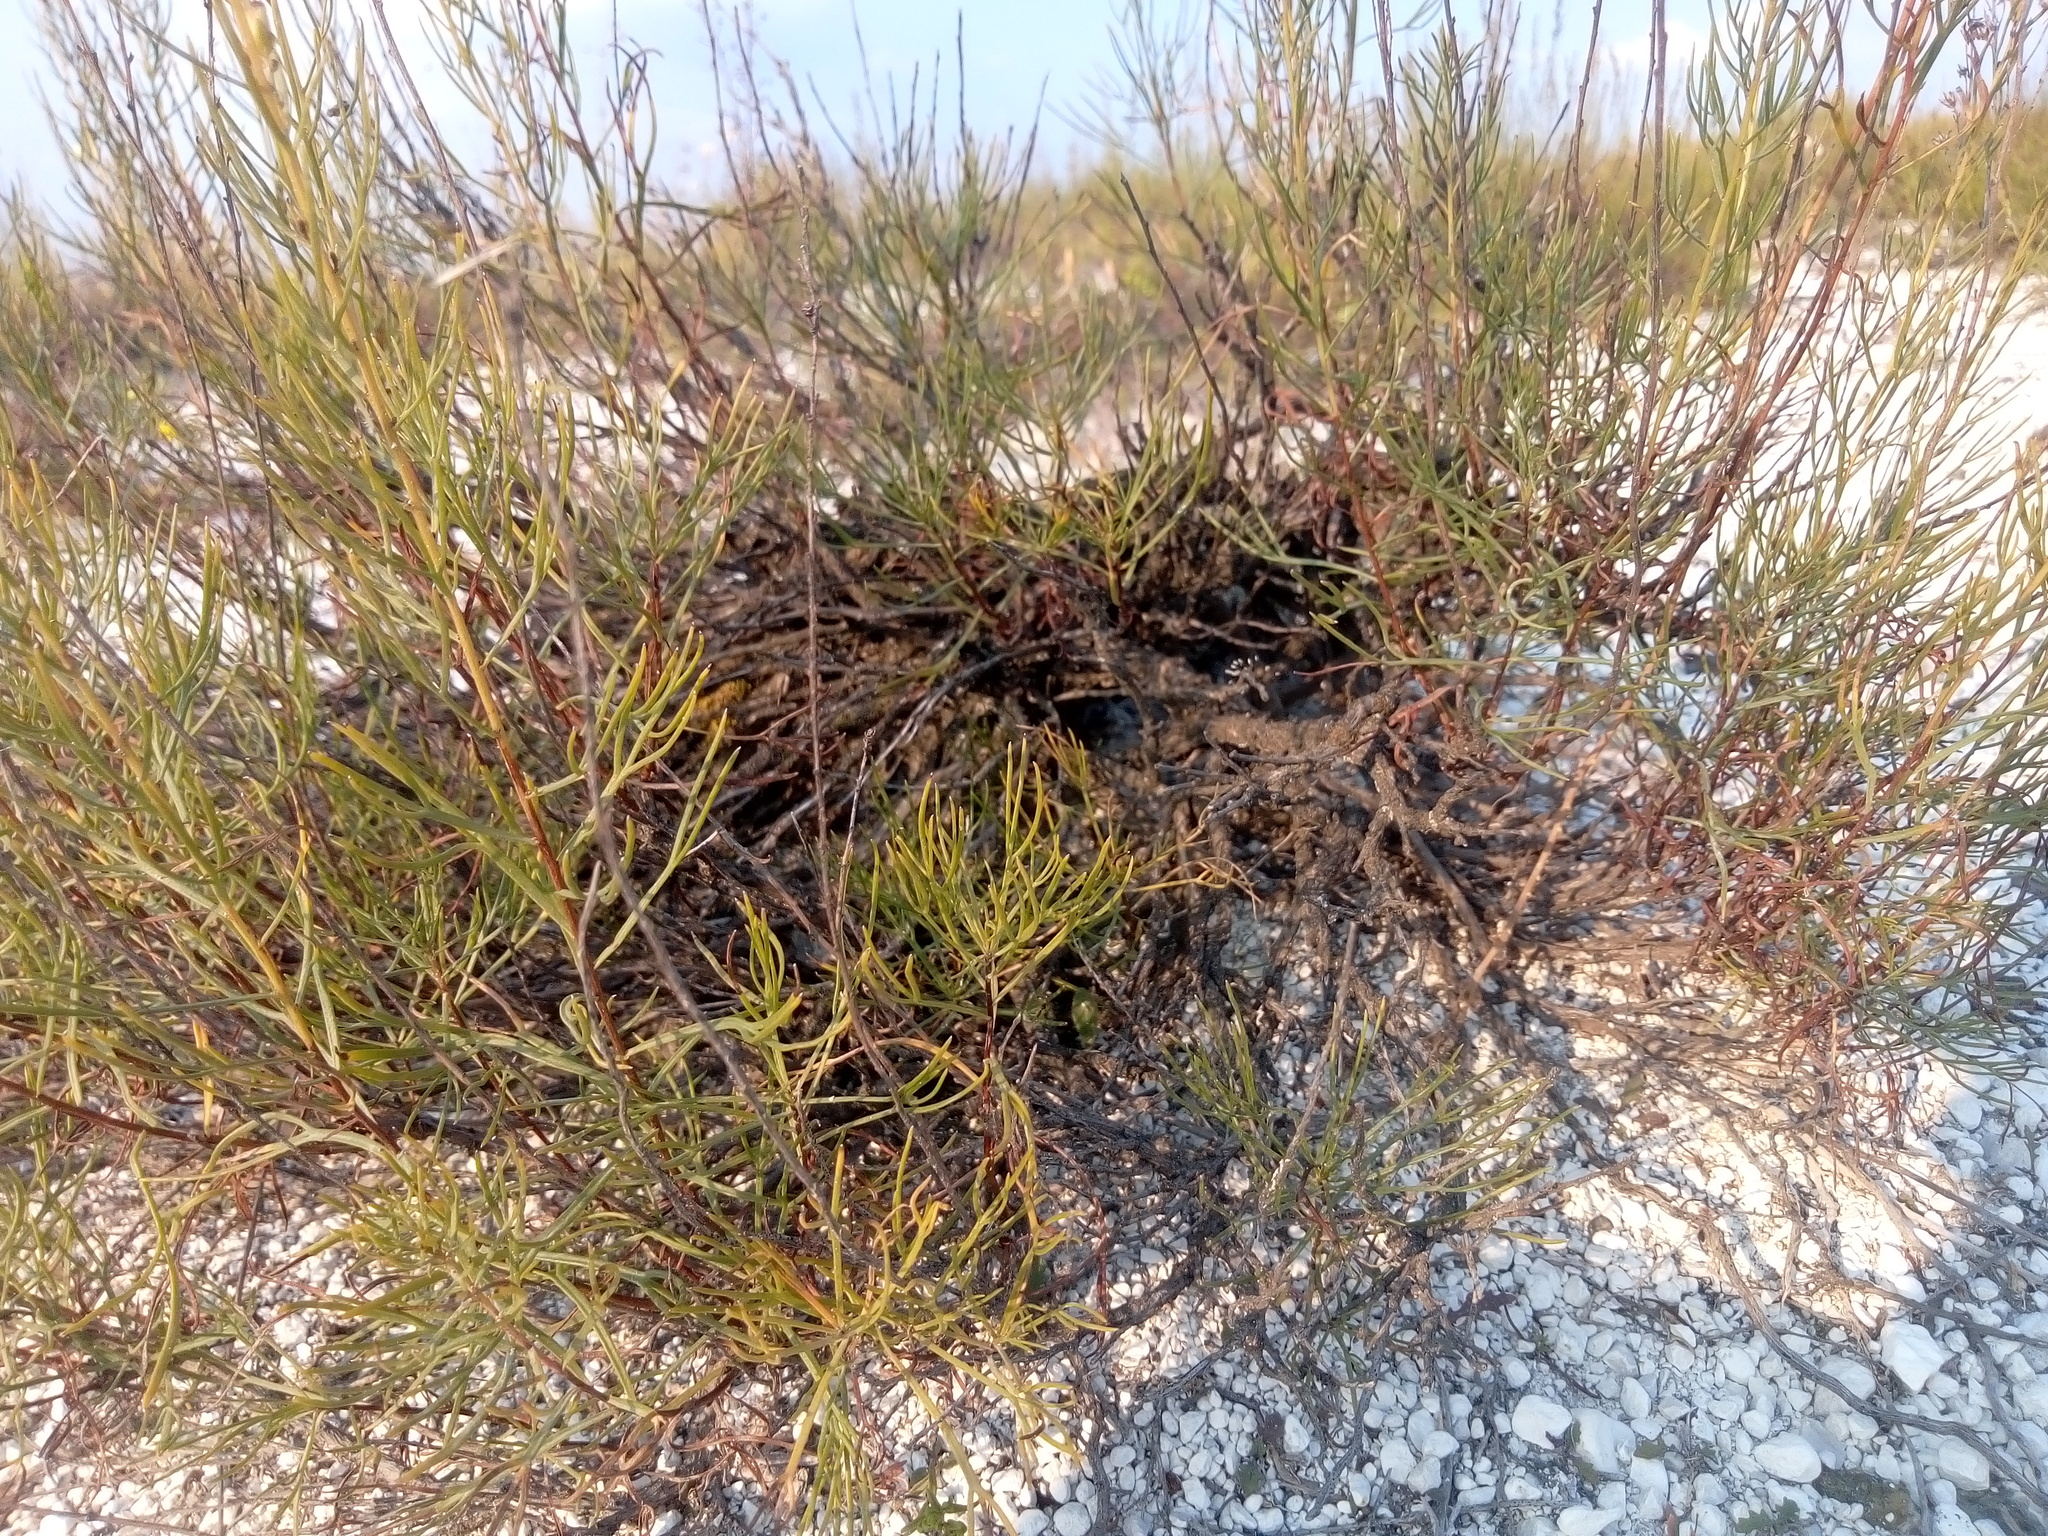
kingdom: Plantae
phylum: Tracheophyta
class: Magnoliopsida
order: Asterales
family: Asteraceae
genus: Artemisia
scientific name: Artemisia salsoloides
